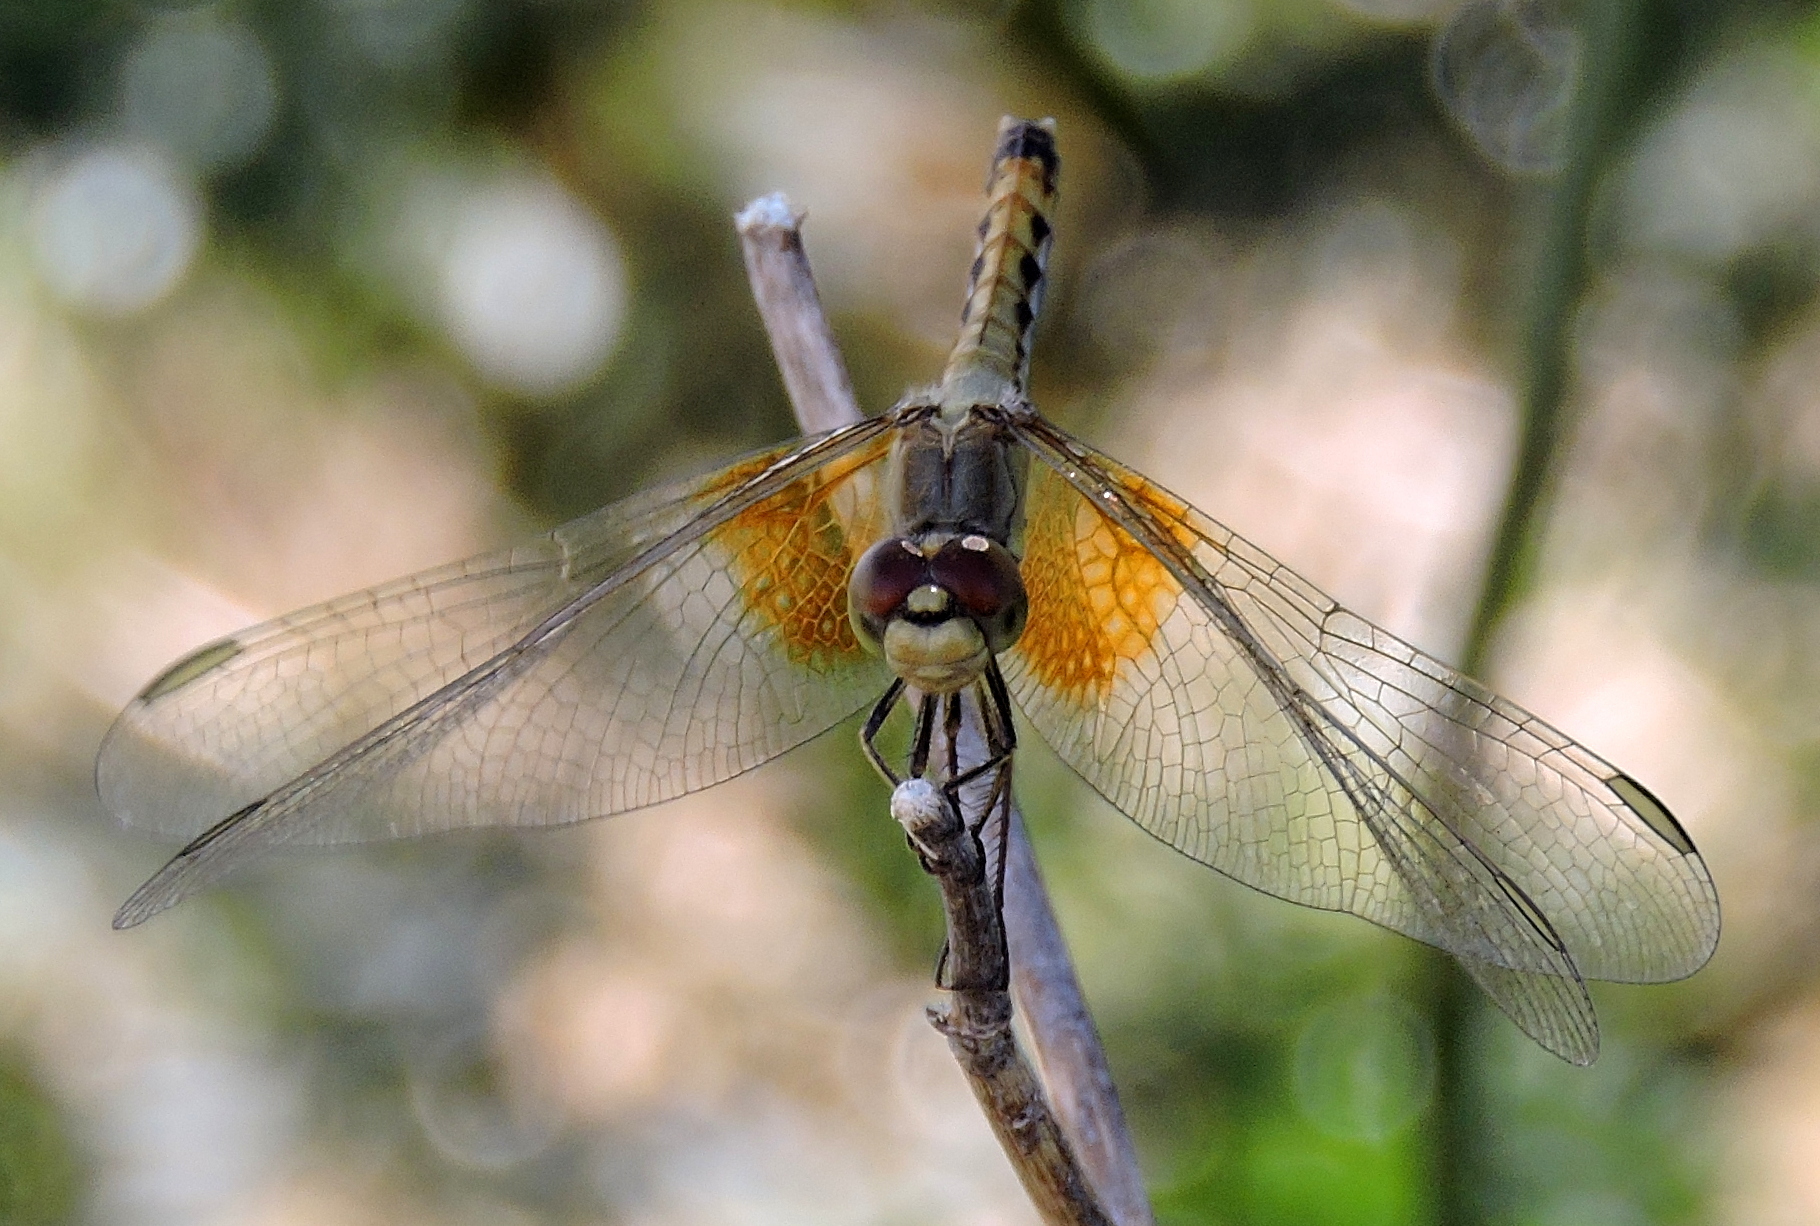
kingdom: Animalia
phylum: Arthropoda
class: Insecta
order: Odonata
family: Libellulidae
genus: Erythrodiplax
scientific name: Erythrodiplax corallina
